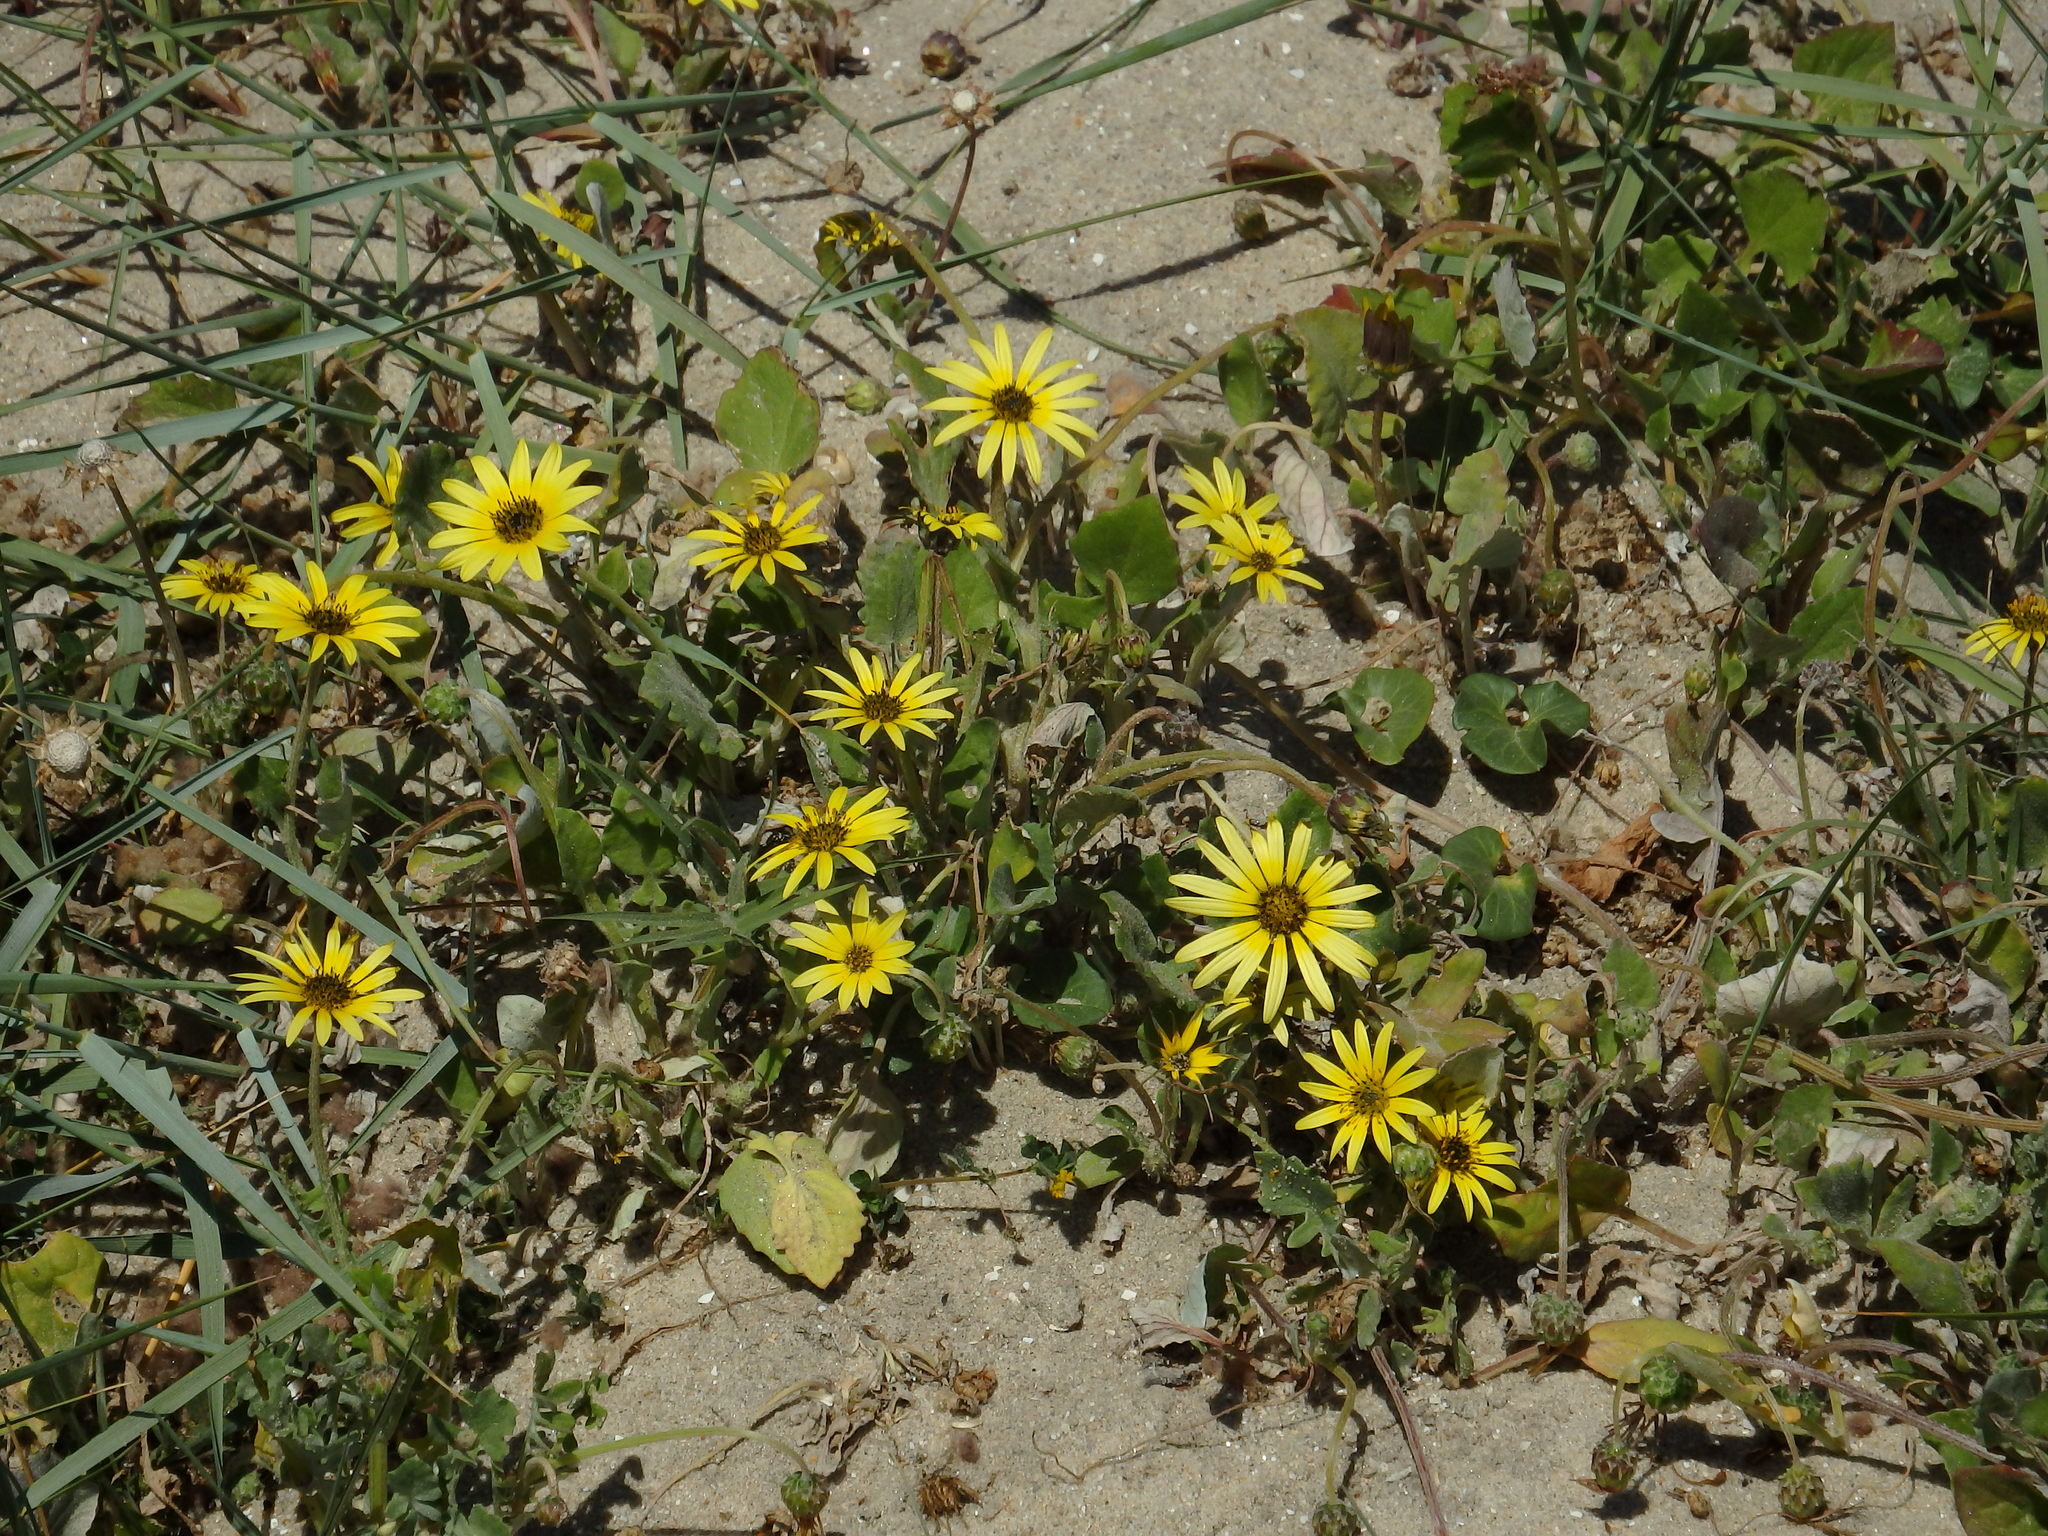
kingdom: Plantae
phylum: Tracheophyta
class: Magnoliopsida
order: Asterales
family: Asteraceae
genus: Arctotheca
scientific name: Arctotheca calendula
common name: Capeweed
